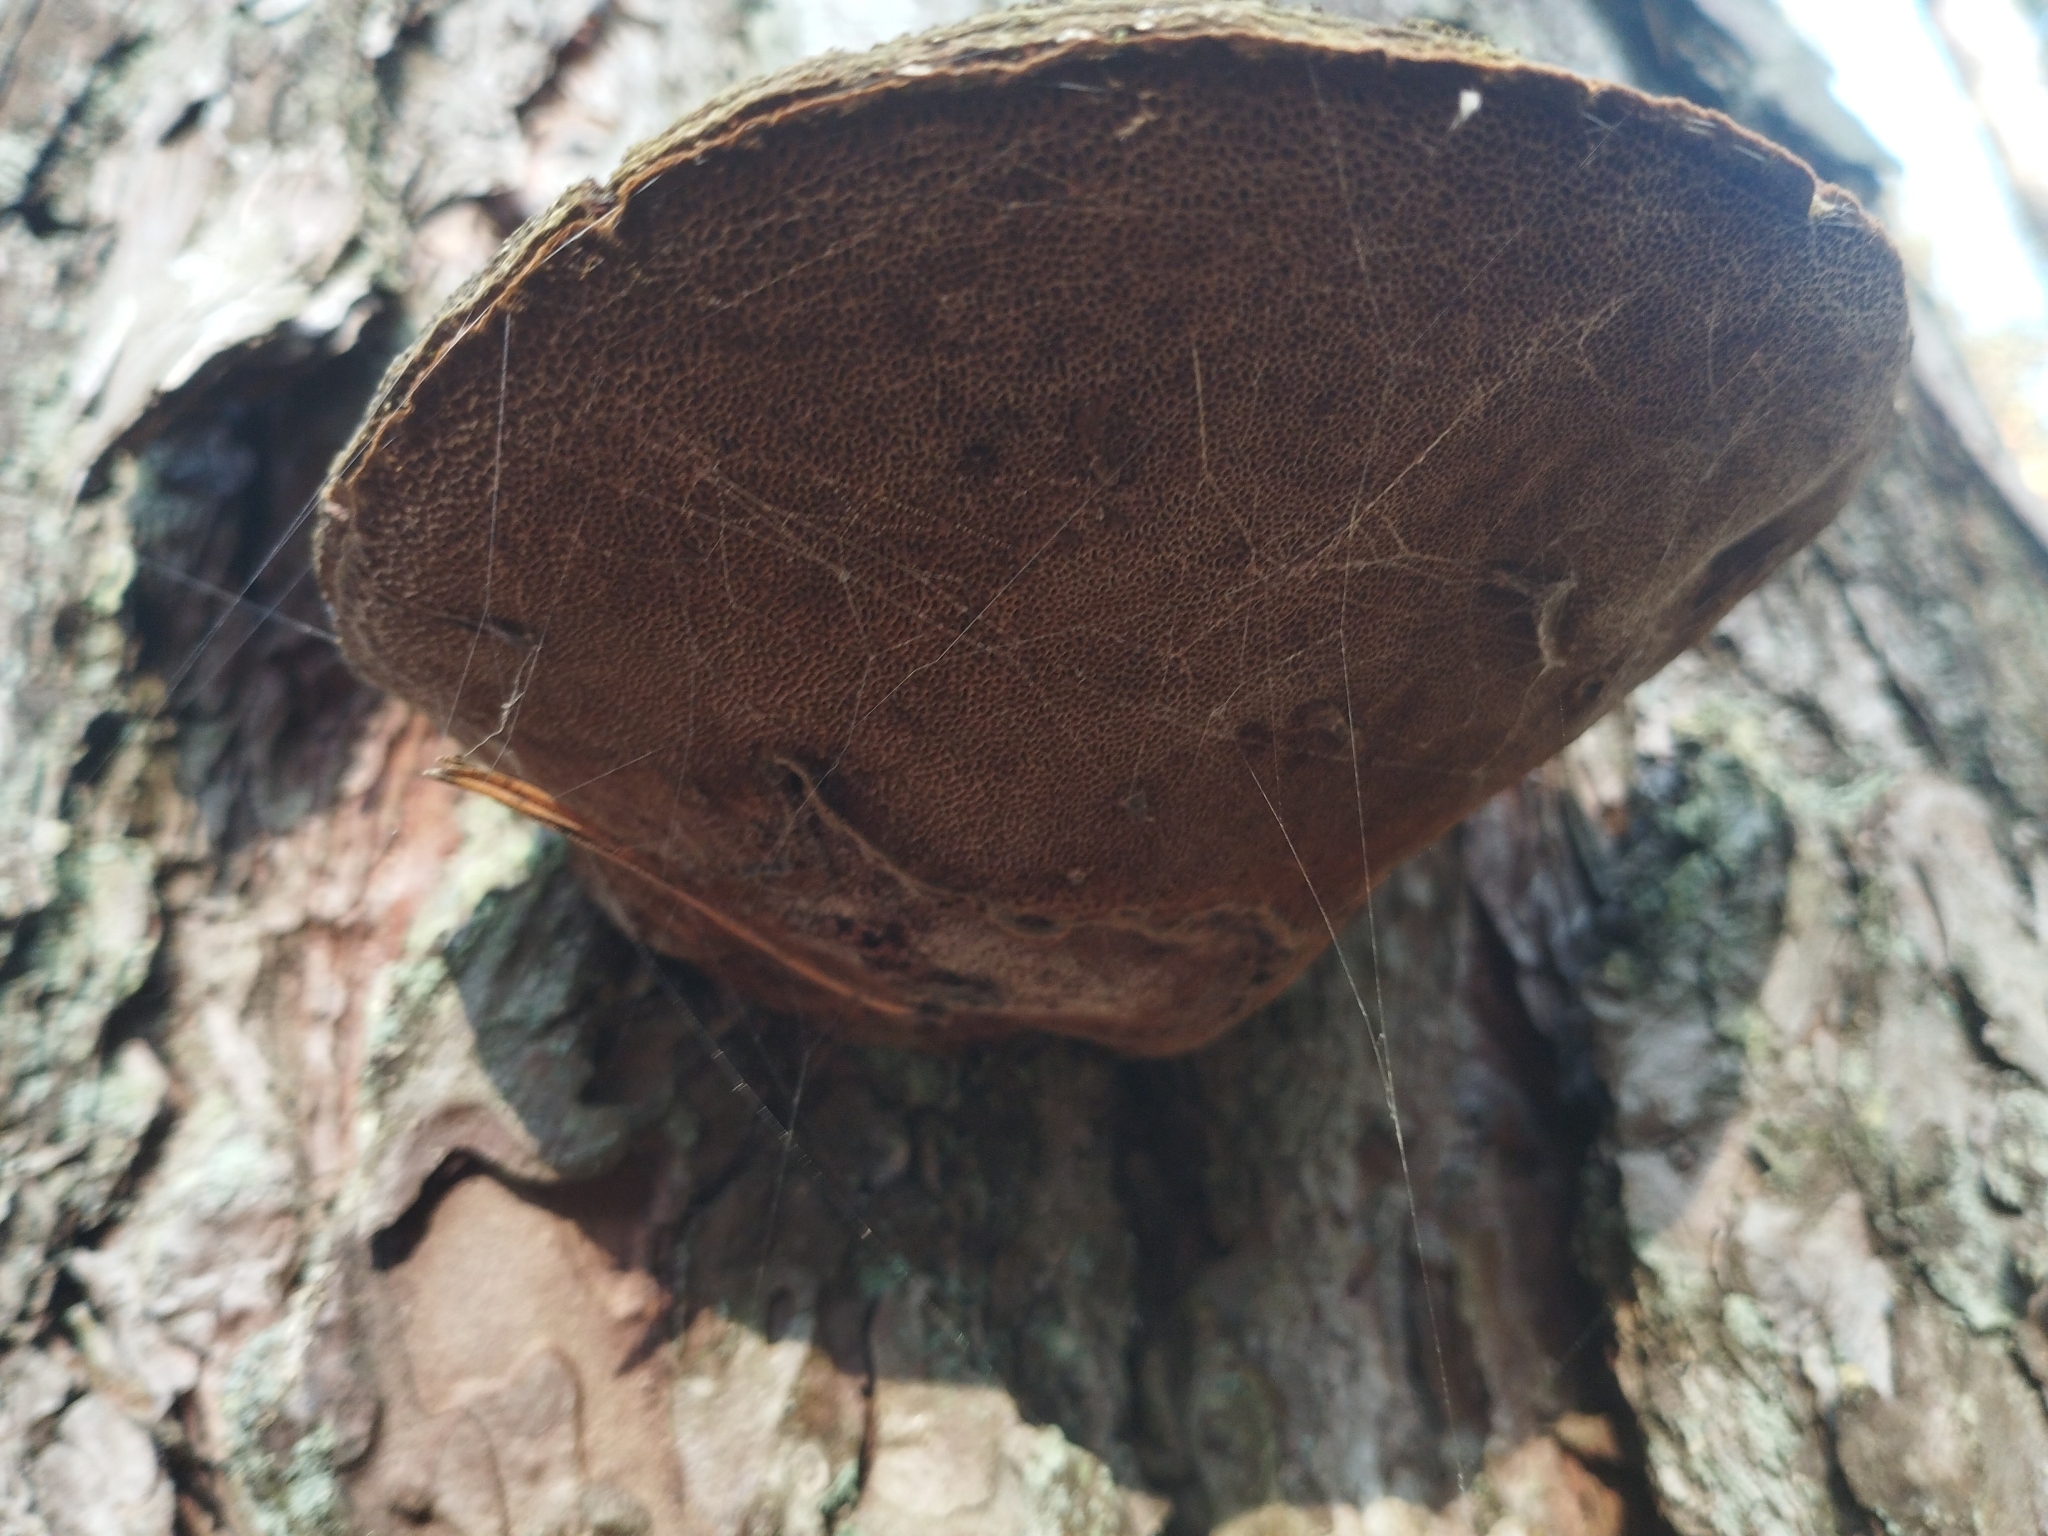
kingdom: Fungi
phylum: Basidiomycota
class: Agaricomycetes
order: Hymenochaetales
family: Hymenochaetaceae
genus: Porodaedalea
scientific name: Porodaedalea pini
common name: Pine bracket
